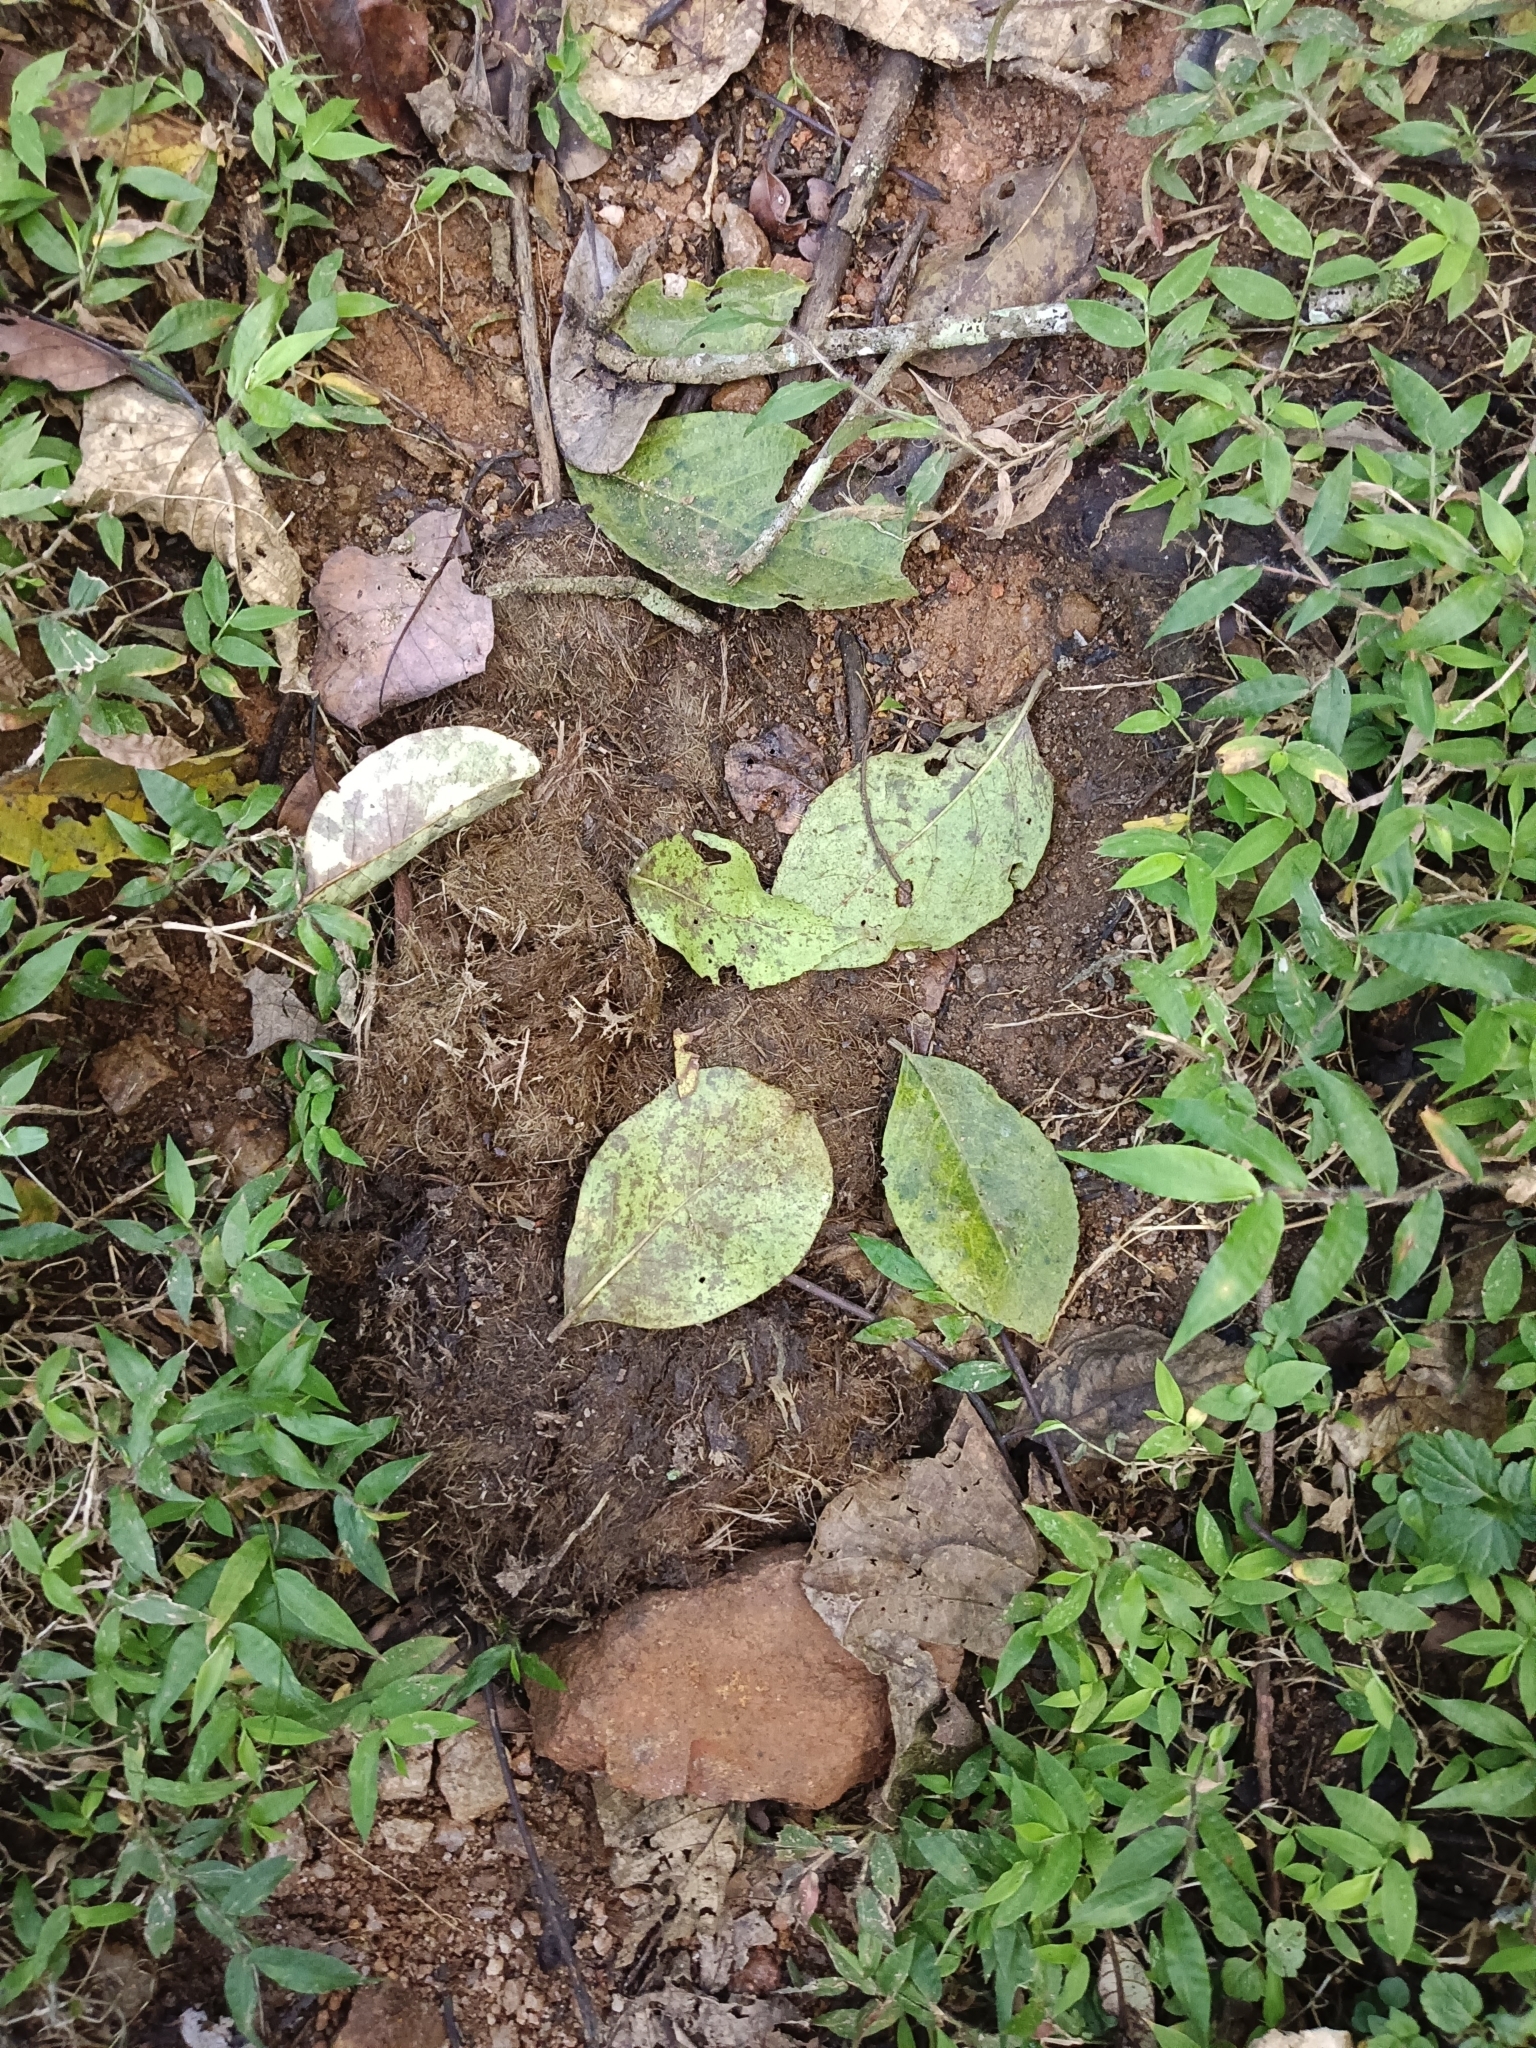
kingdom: Animalia
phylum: Chordata
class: Mammalia
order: Proboscidea
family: Elephantidae
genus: Elephas
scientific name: Elephas maximus
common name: Asian elephant
